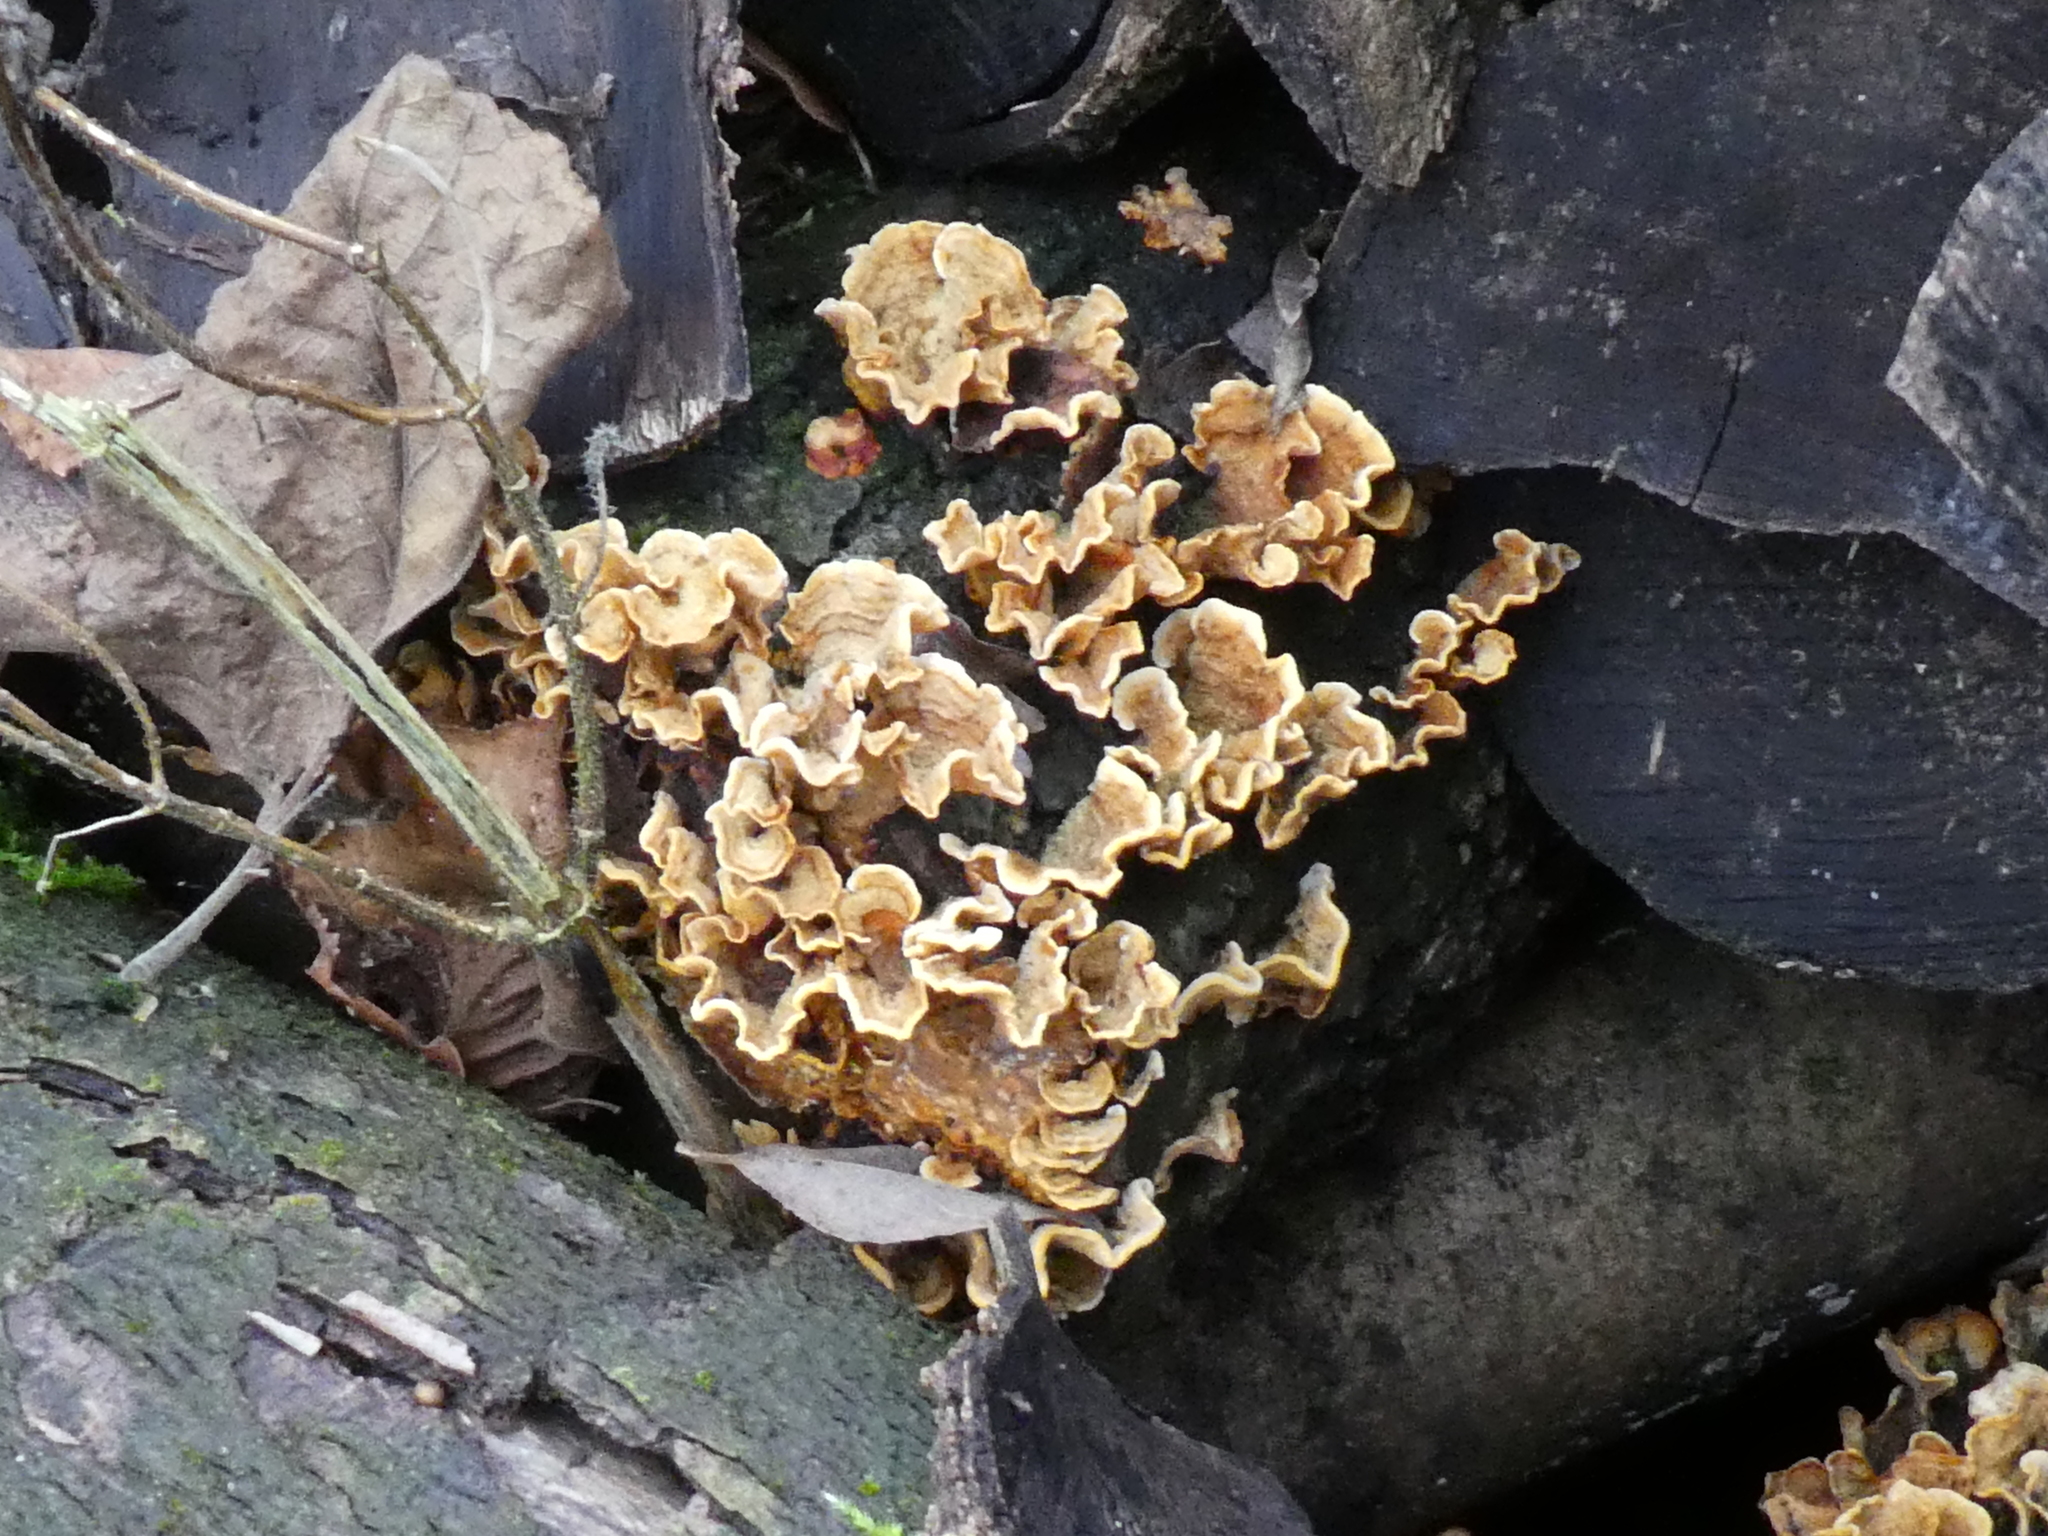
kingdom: Fungi
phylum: Basidiomycota
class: Agaricomycetes
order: Russulales
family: Stereaceae
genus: Stereum
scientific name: Stereum hirsutum
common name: Hairy curtain crust
